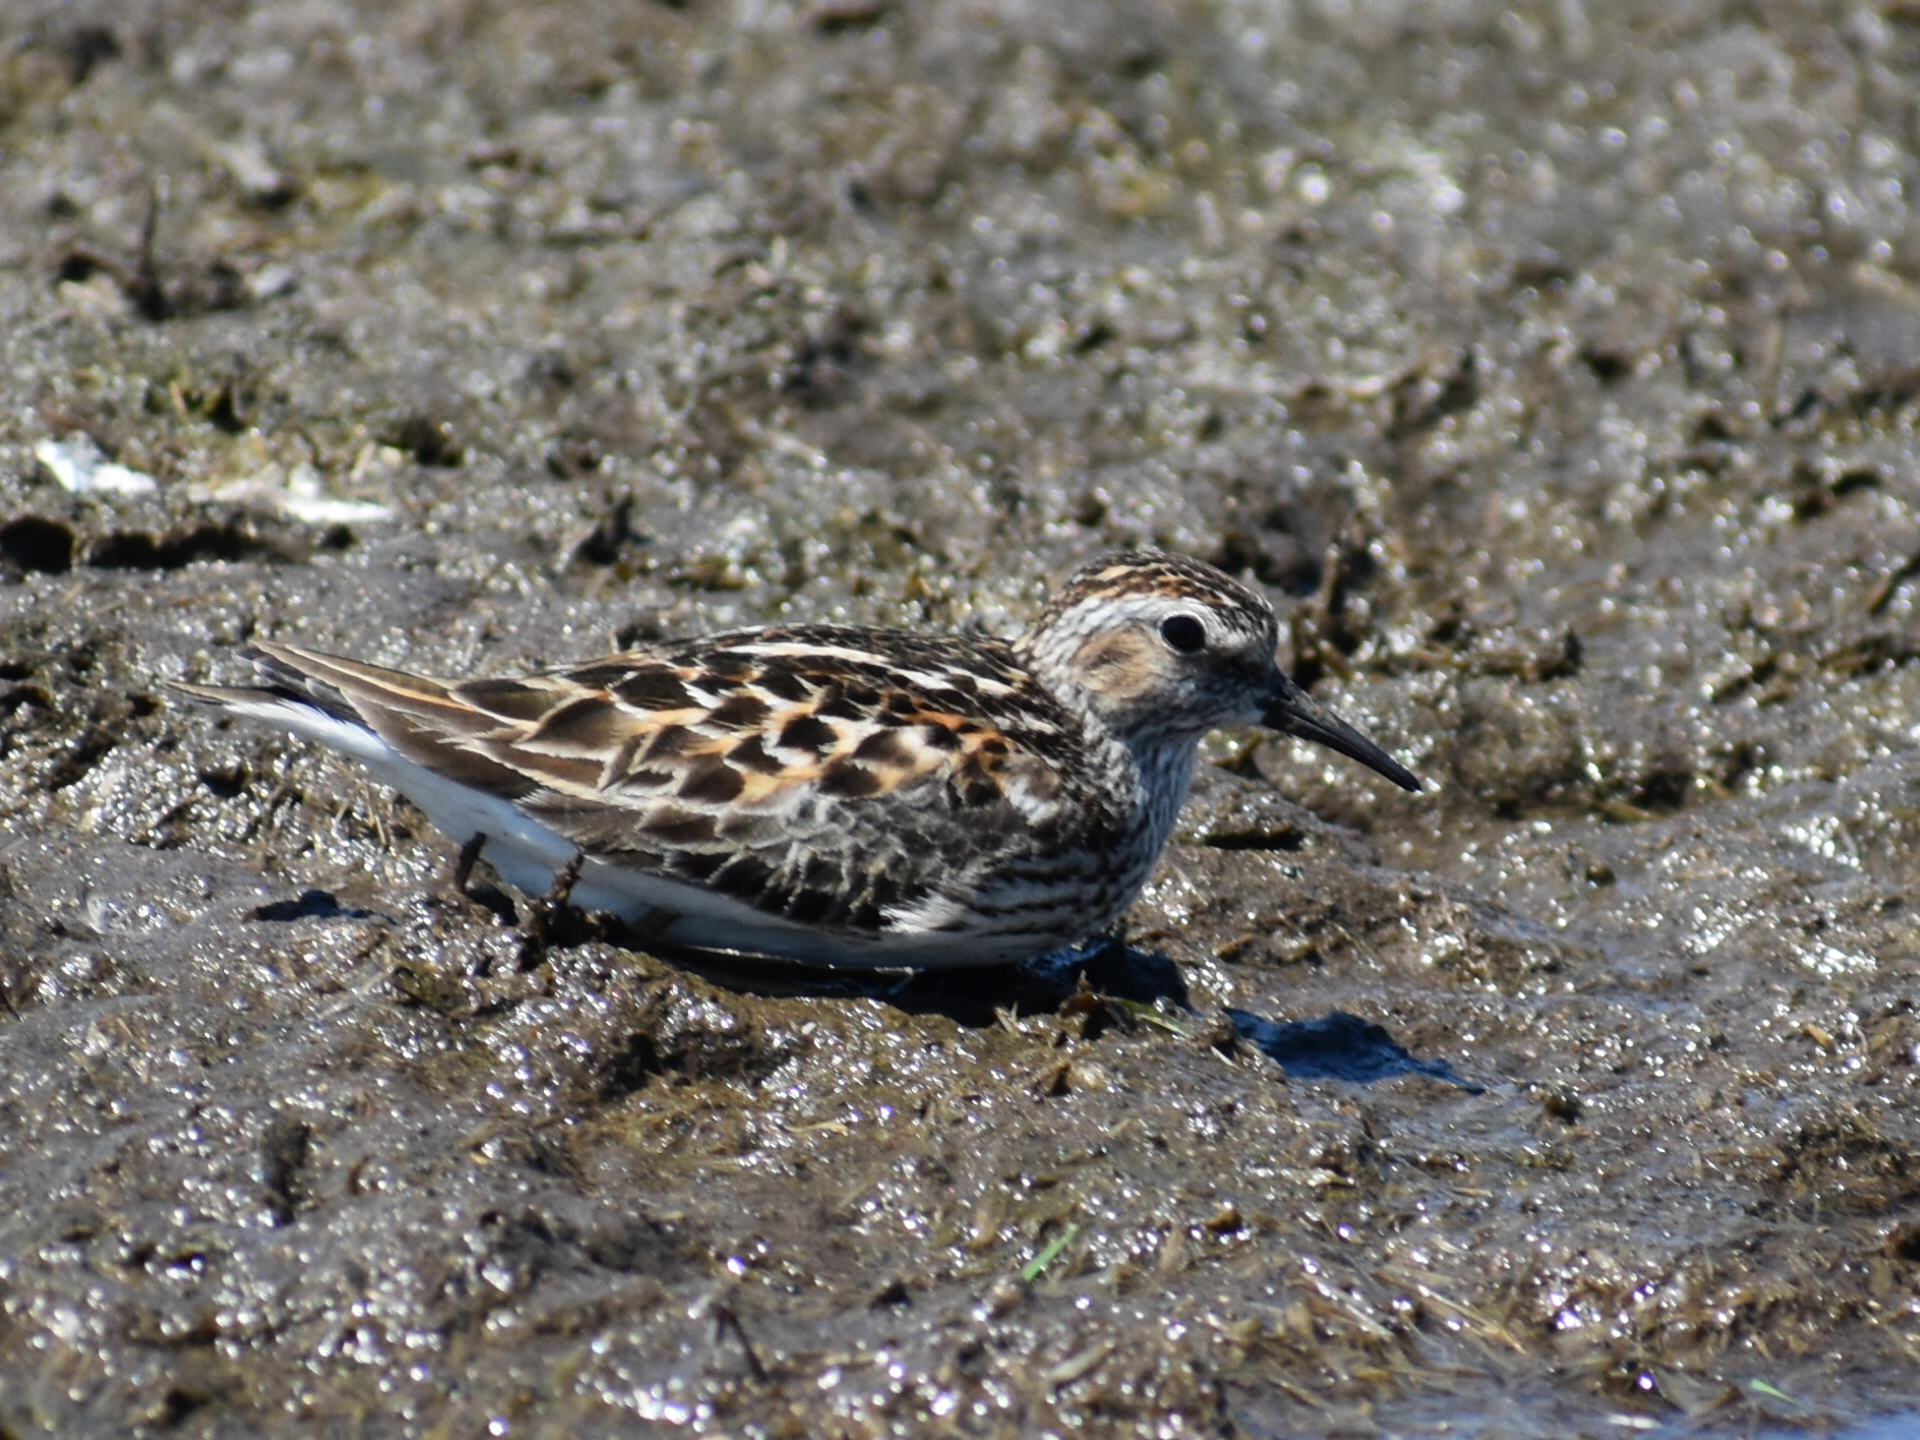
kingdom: Animalia
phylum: Chordata
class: Aves
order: Charadriiformes
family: Scolopacidae
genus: Calidris
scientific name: Calidris minutilla
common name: Least sandpiper
